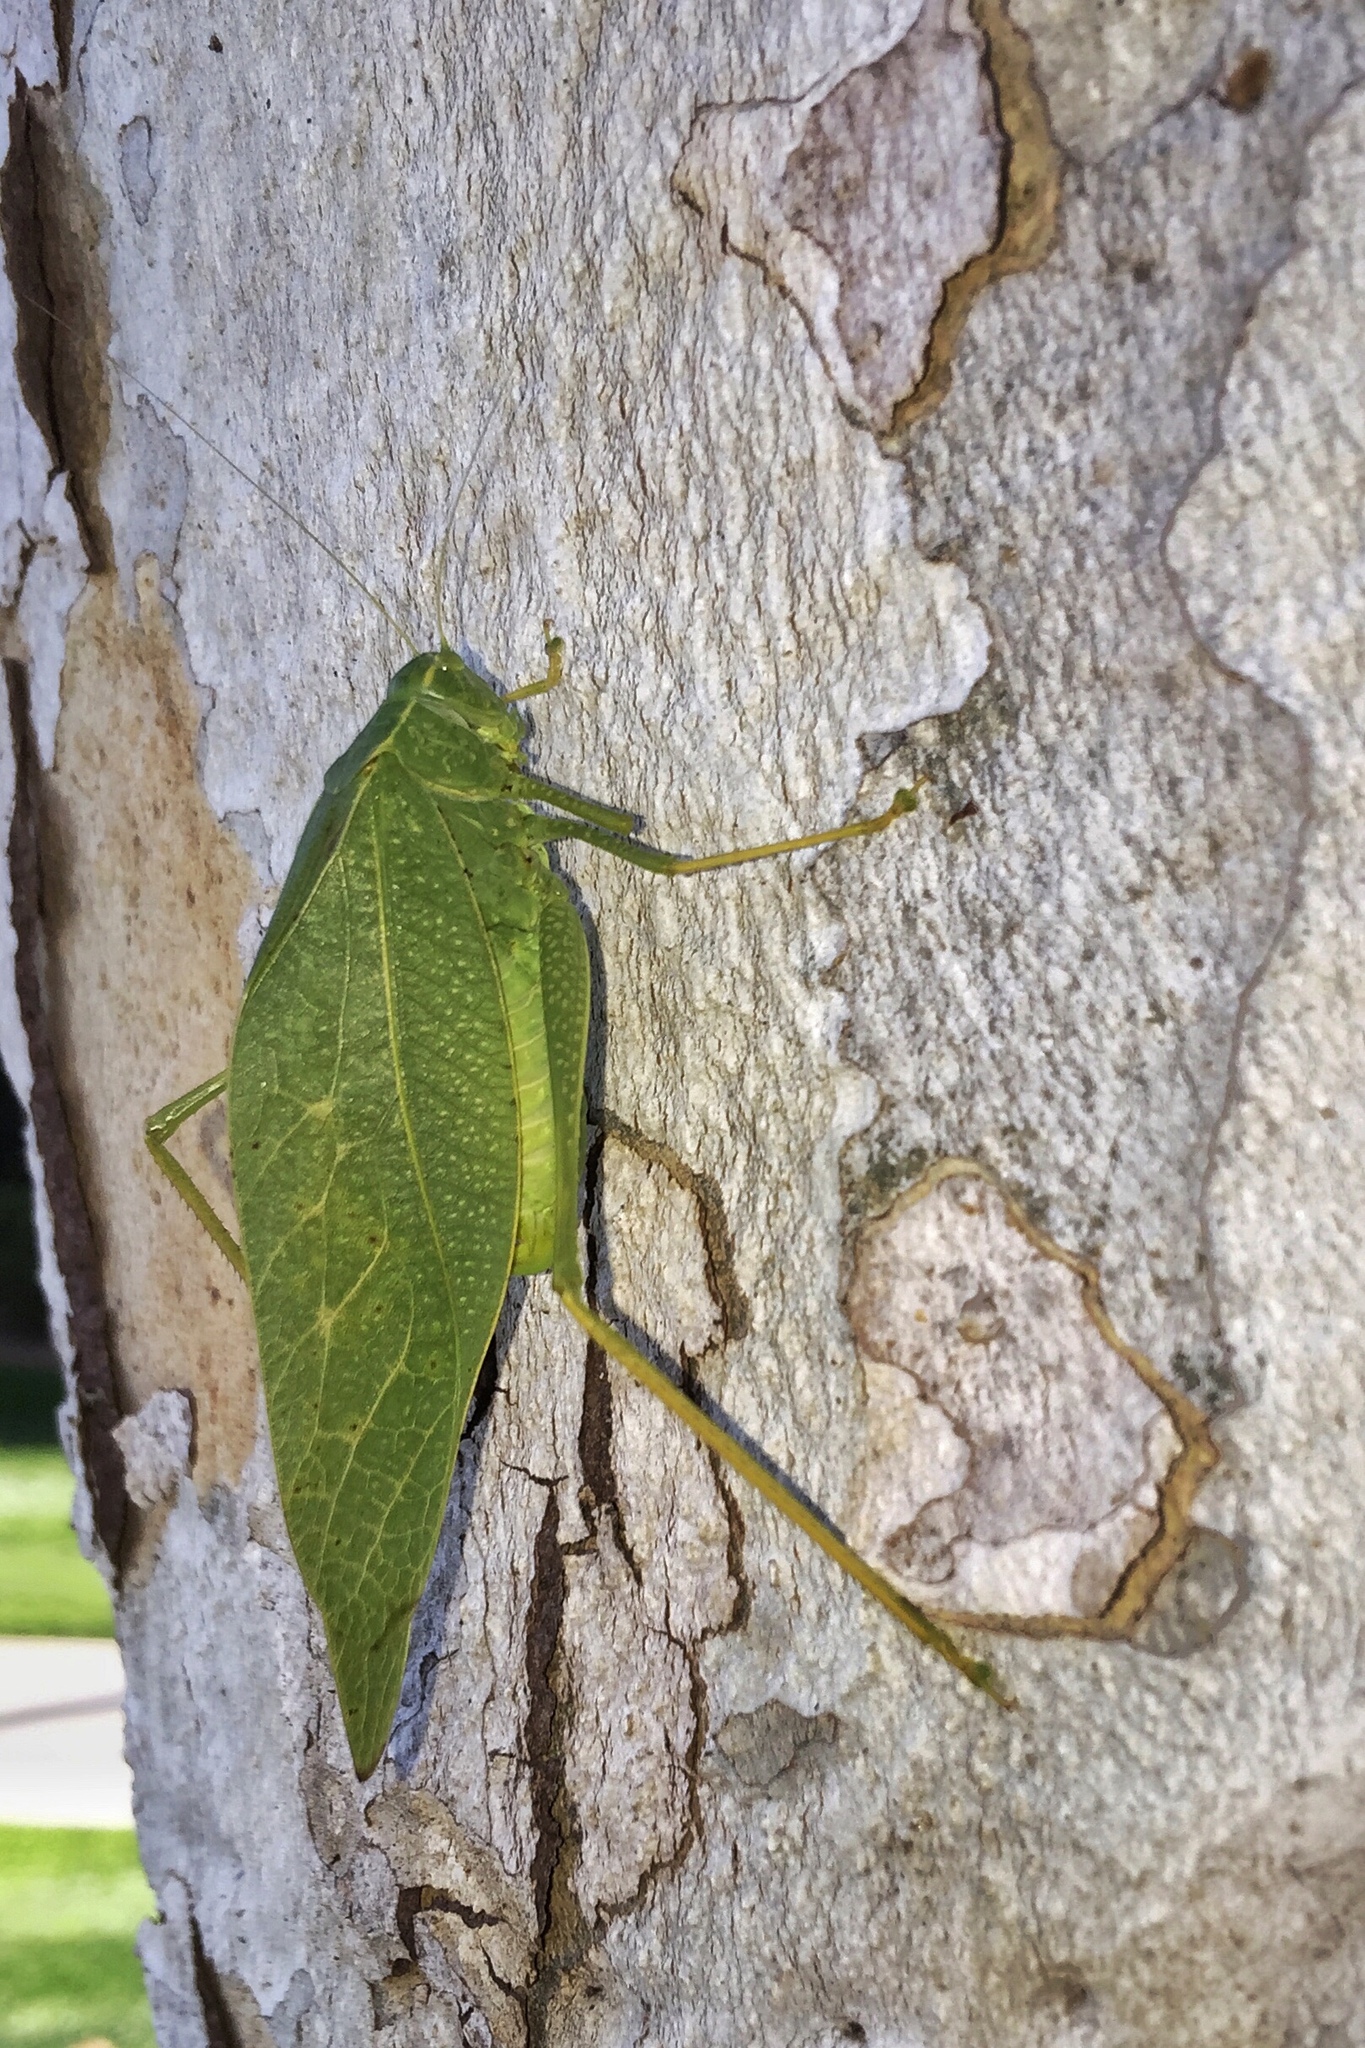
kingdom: Animalia
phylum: Arthropoda
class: Insecta
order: Orthoptera
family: Tettigoniidae
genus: Microcentrum
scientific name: Microcentrum
